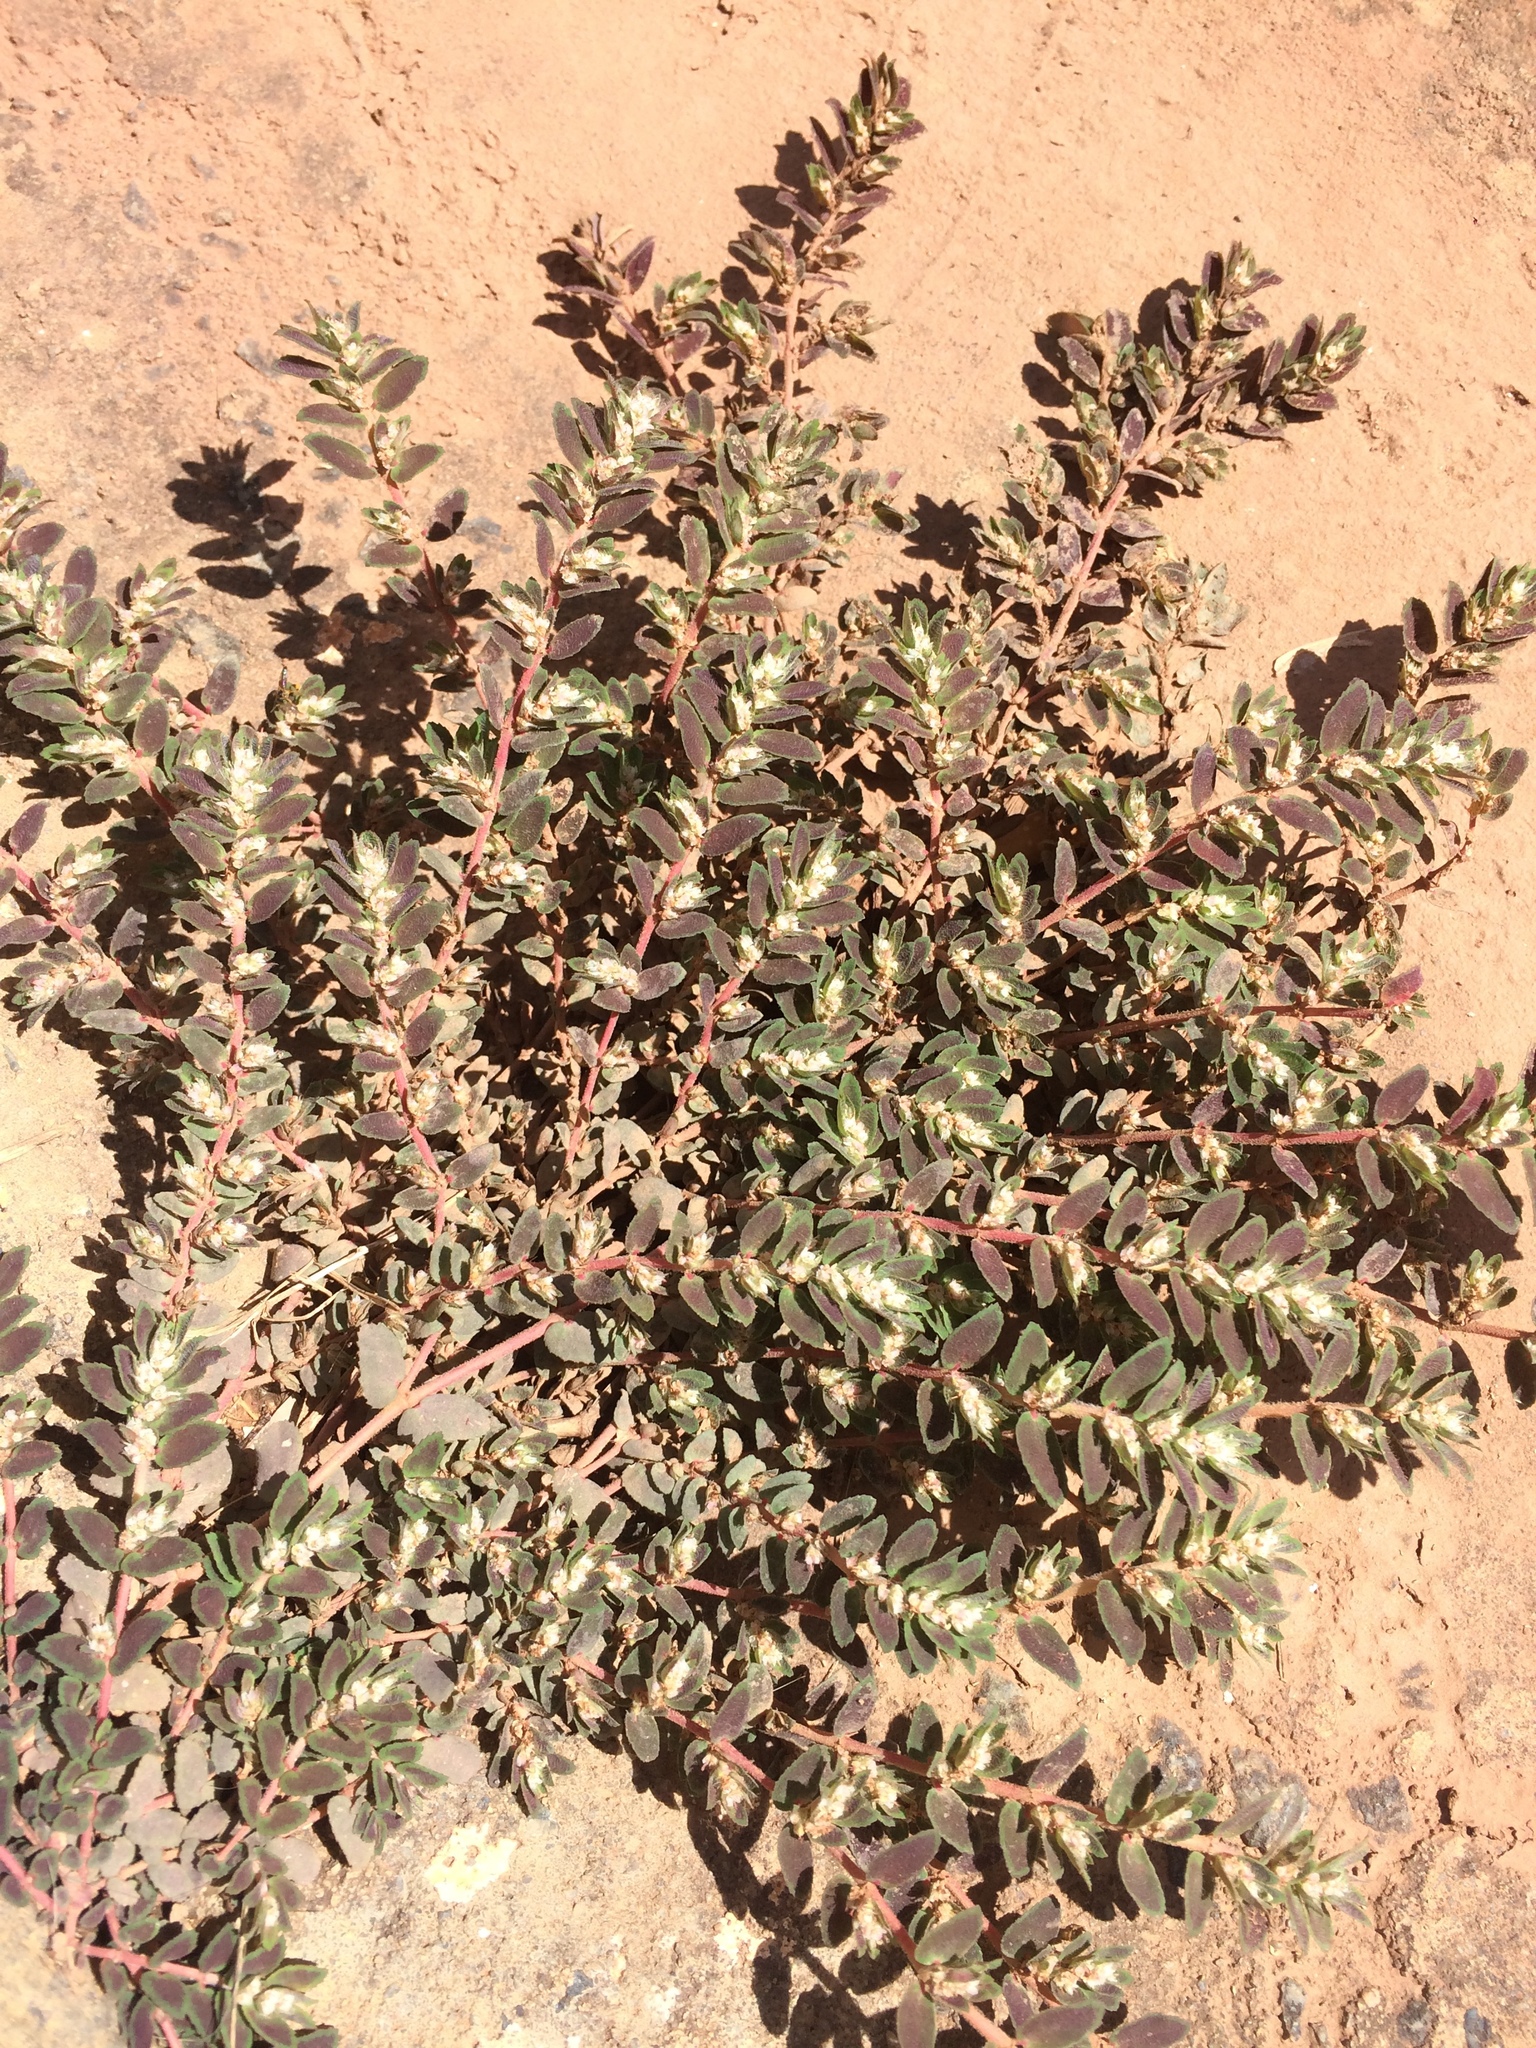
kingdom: Plantae
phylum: Tracheophyta
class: Magnoliopsida
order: Malpighiales
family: Euphorbiaceae
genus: Euphorbia
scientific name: Euphorbia dioeca
